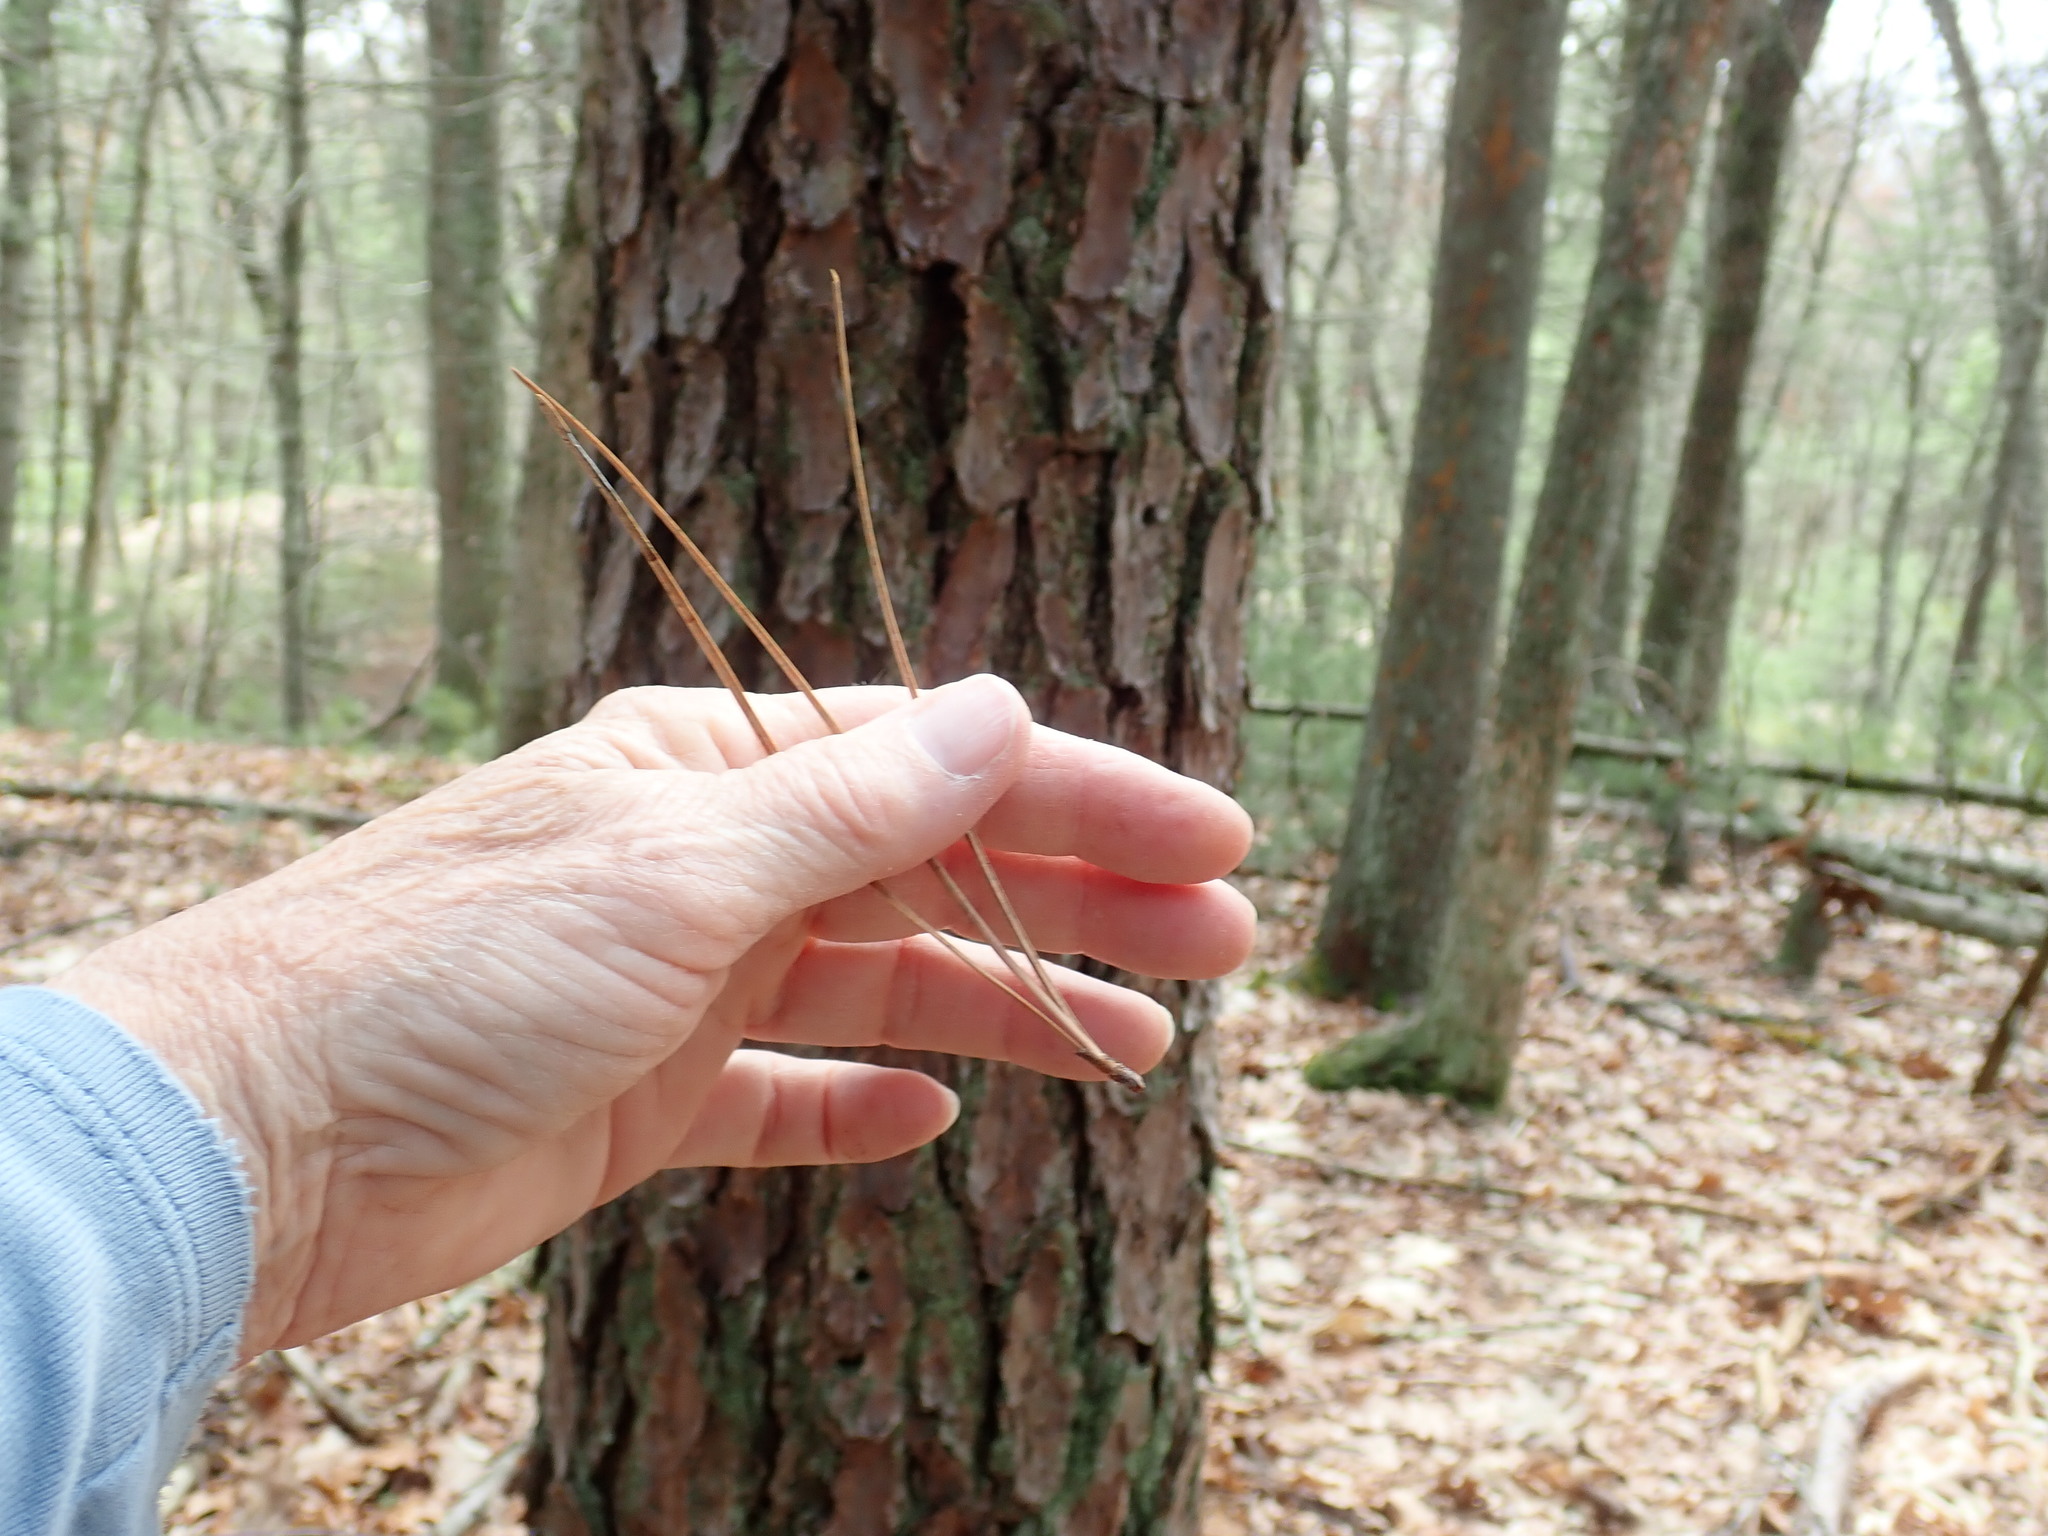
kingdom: Plantae
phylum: Tracheophyta
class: Pinopsida
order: Pinales
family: Pinaceae
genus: Pinus
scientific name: Pinus rigida
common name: Pitch pine
